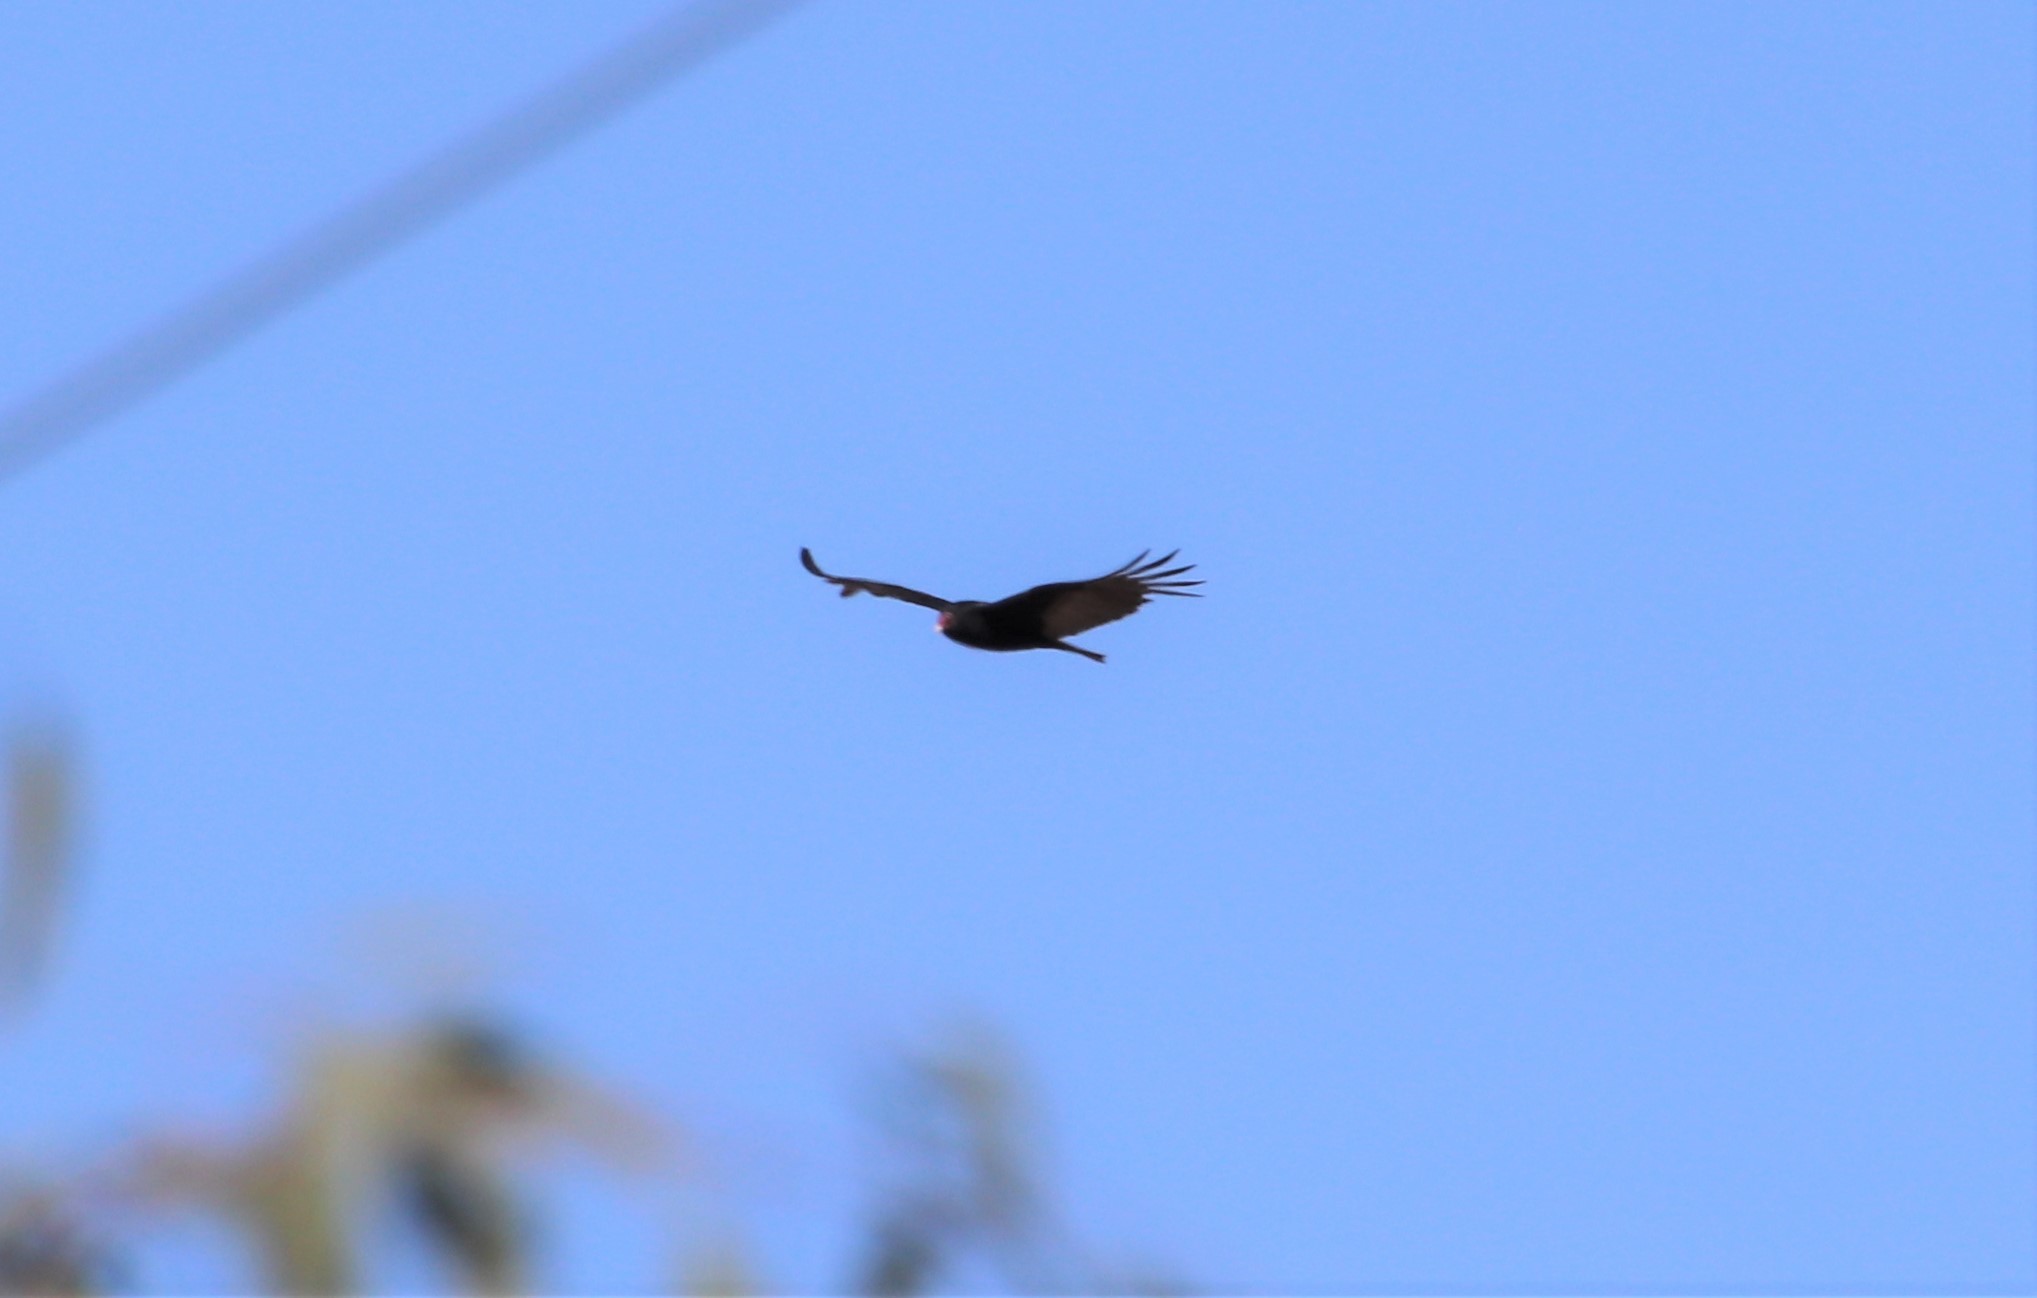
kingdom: Animalia
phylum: Chordata
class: Aves
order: Accipitriformes
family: Cathartidae
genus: Cathartes
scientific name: Cathartes aura
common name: Turkey vulture
